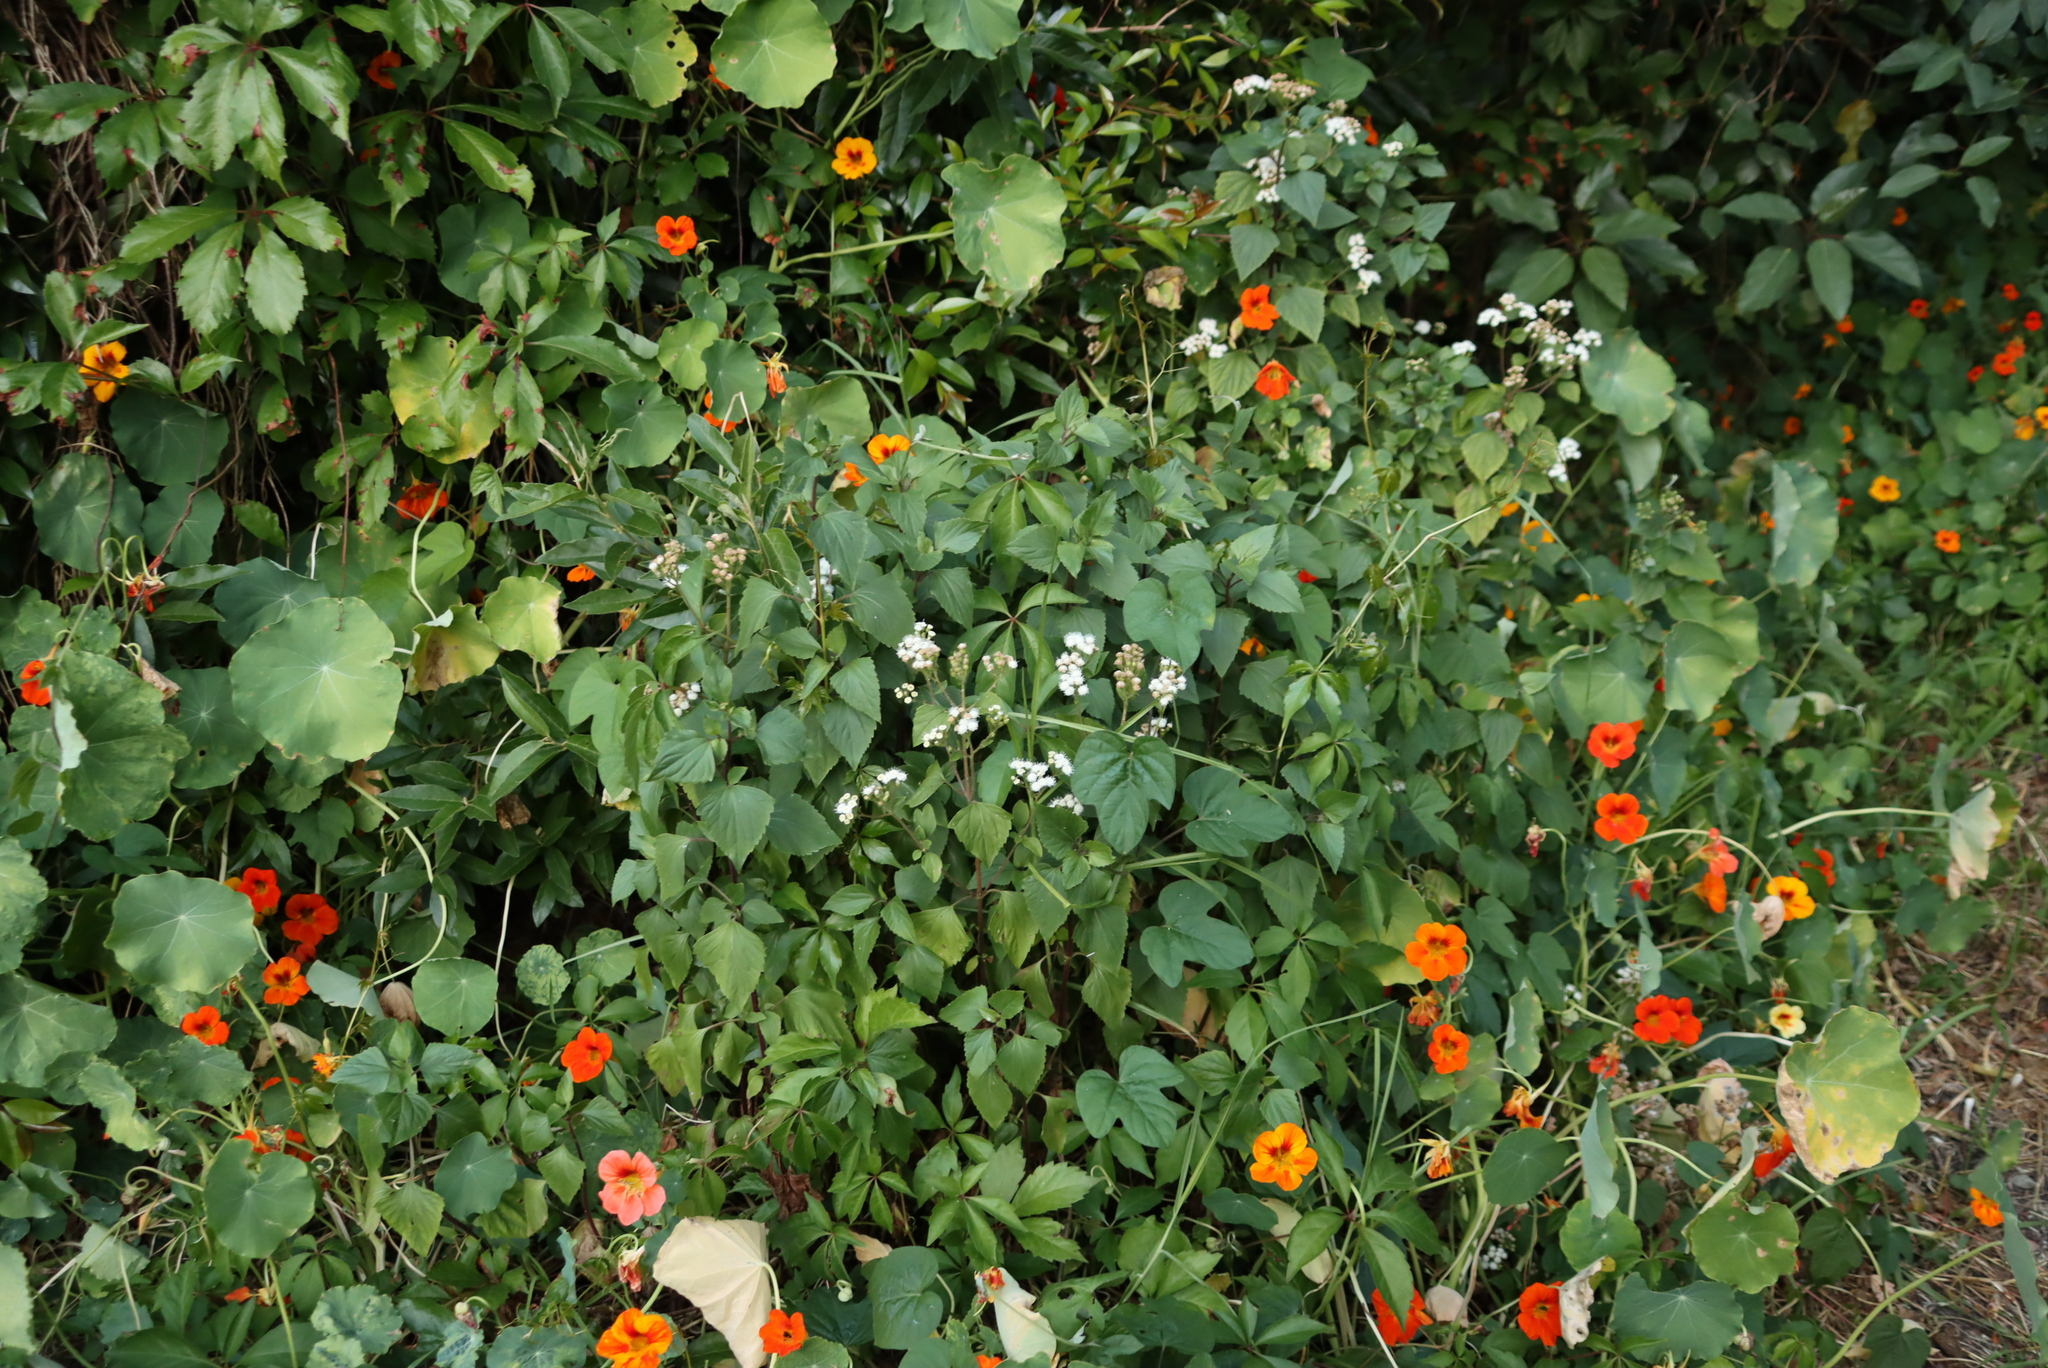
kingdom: Plantae
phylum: Tracheophyta
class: Magnoliopsida
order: Brassicales
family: Tropaeolaceae
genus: Tropaeolum
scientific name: Tropaeolum majus
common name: Nasturtium
